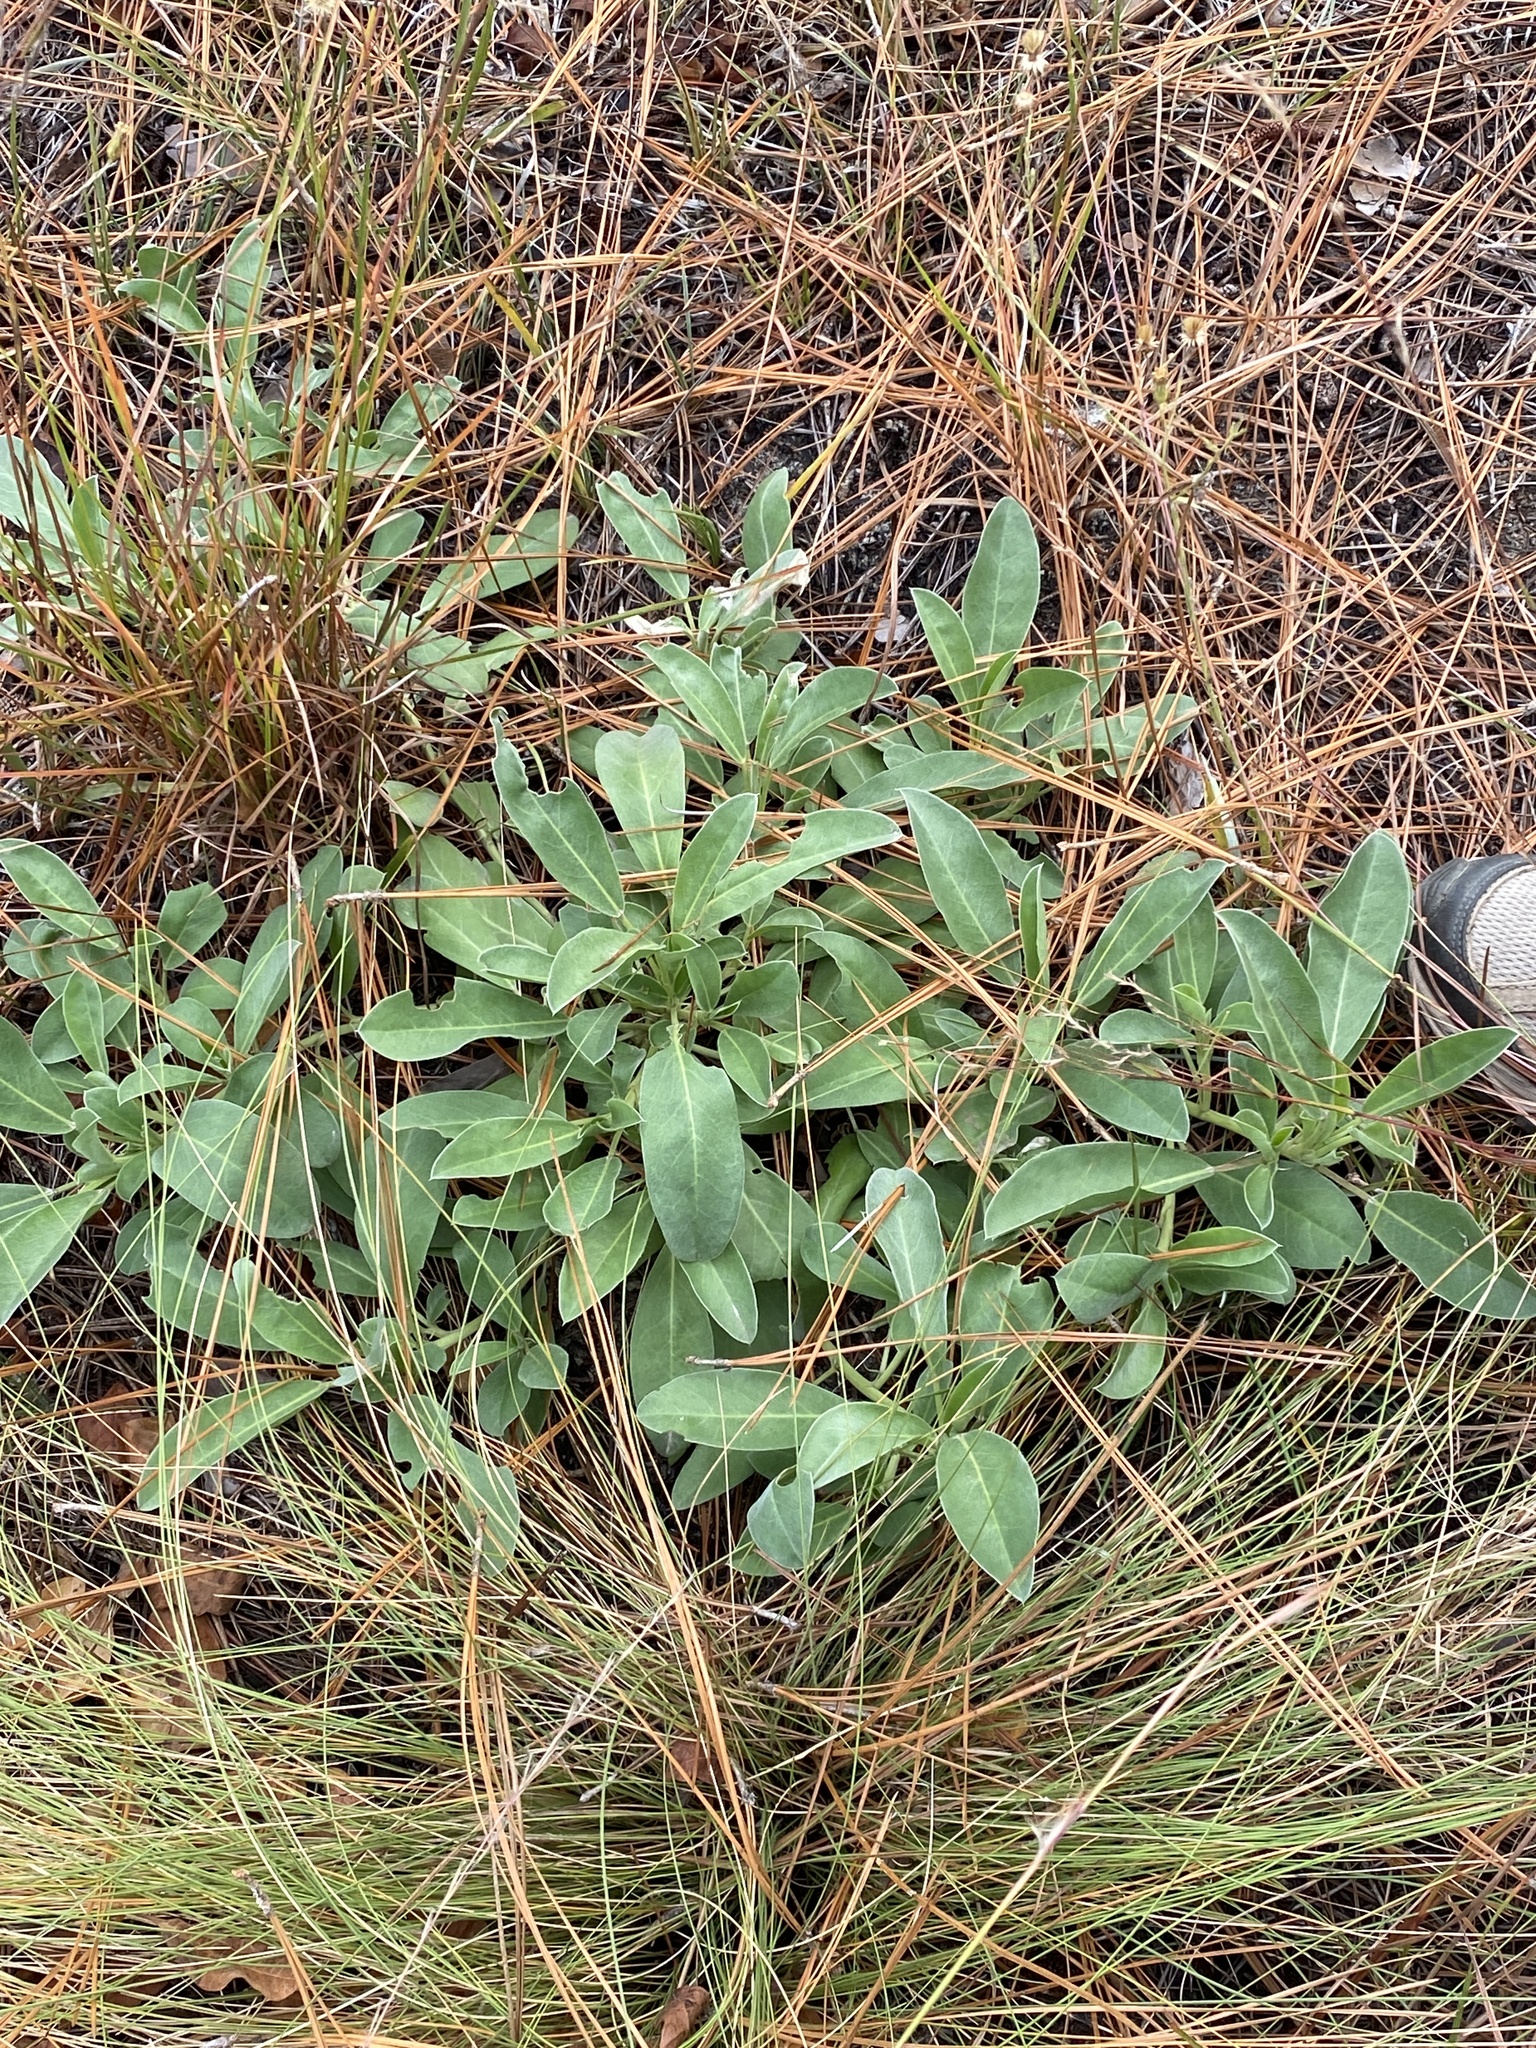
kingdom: Plantae
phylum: Tracheophyta
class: Magnoliopsida
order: Fabales
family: Fabaceae
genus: Lupinus
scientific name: Lupinus diffusus
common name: Oak ridge lupine
